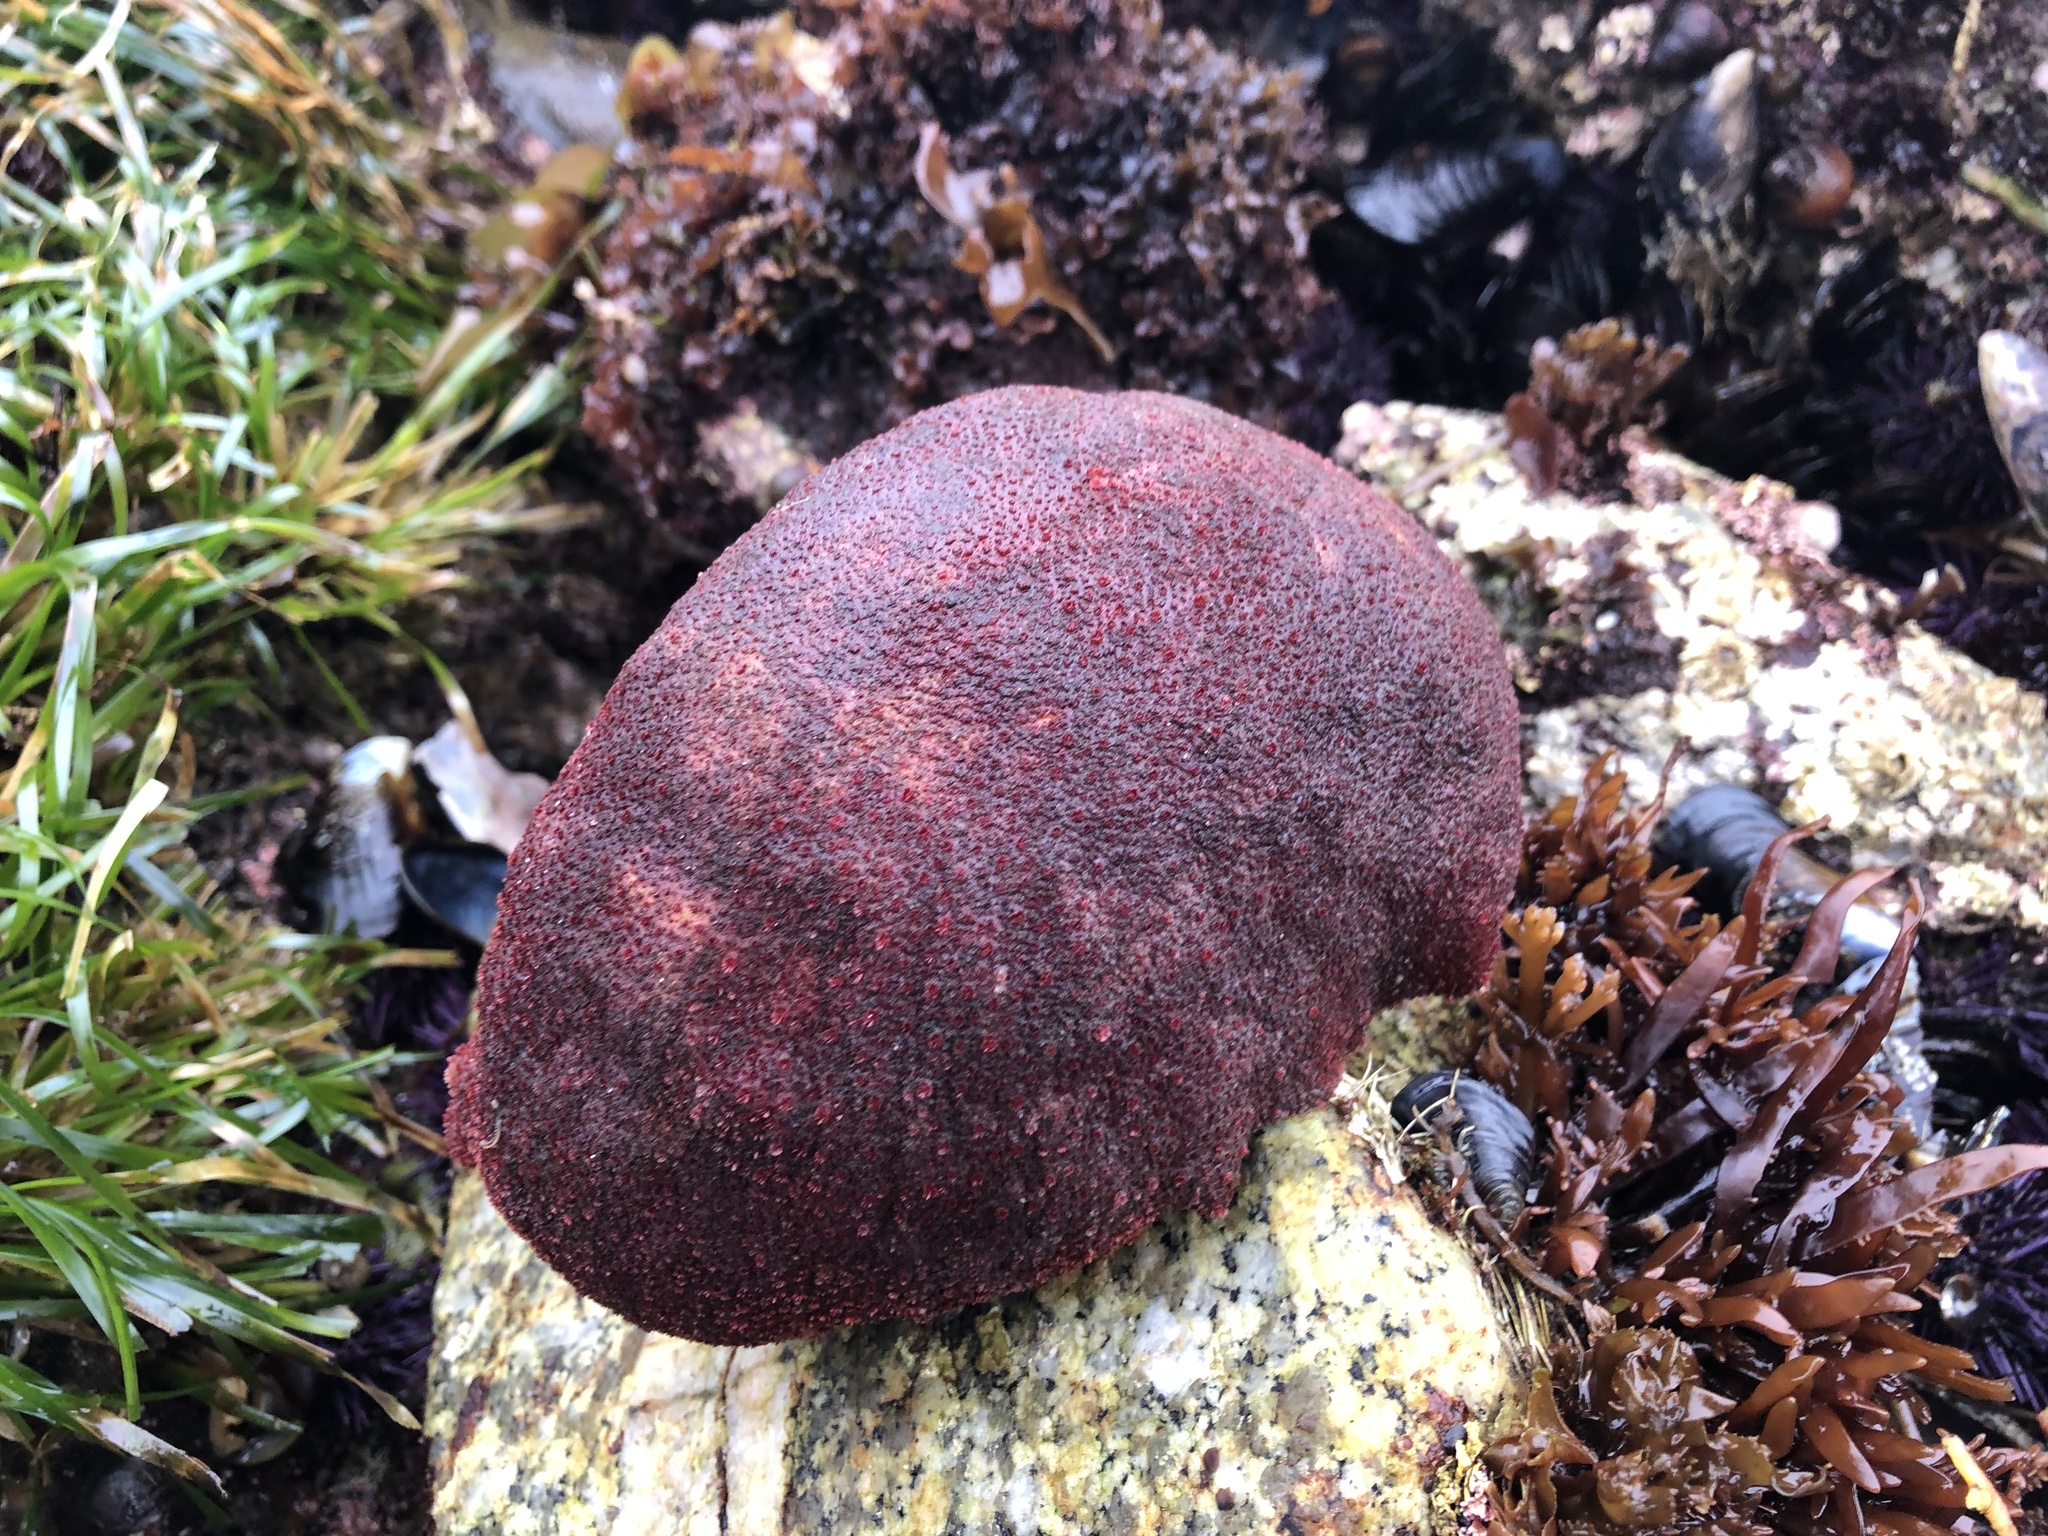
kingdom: Animalia
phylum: Mollusca
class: Polyplacophora
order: Chitonida
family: Acanthochitonidae
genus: Cryptochiton
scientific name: Cryptochiton stelleri
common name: Giant pacific chiton
